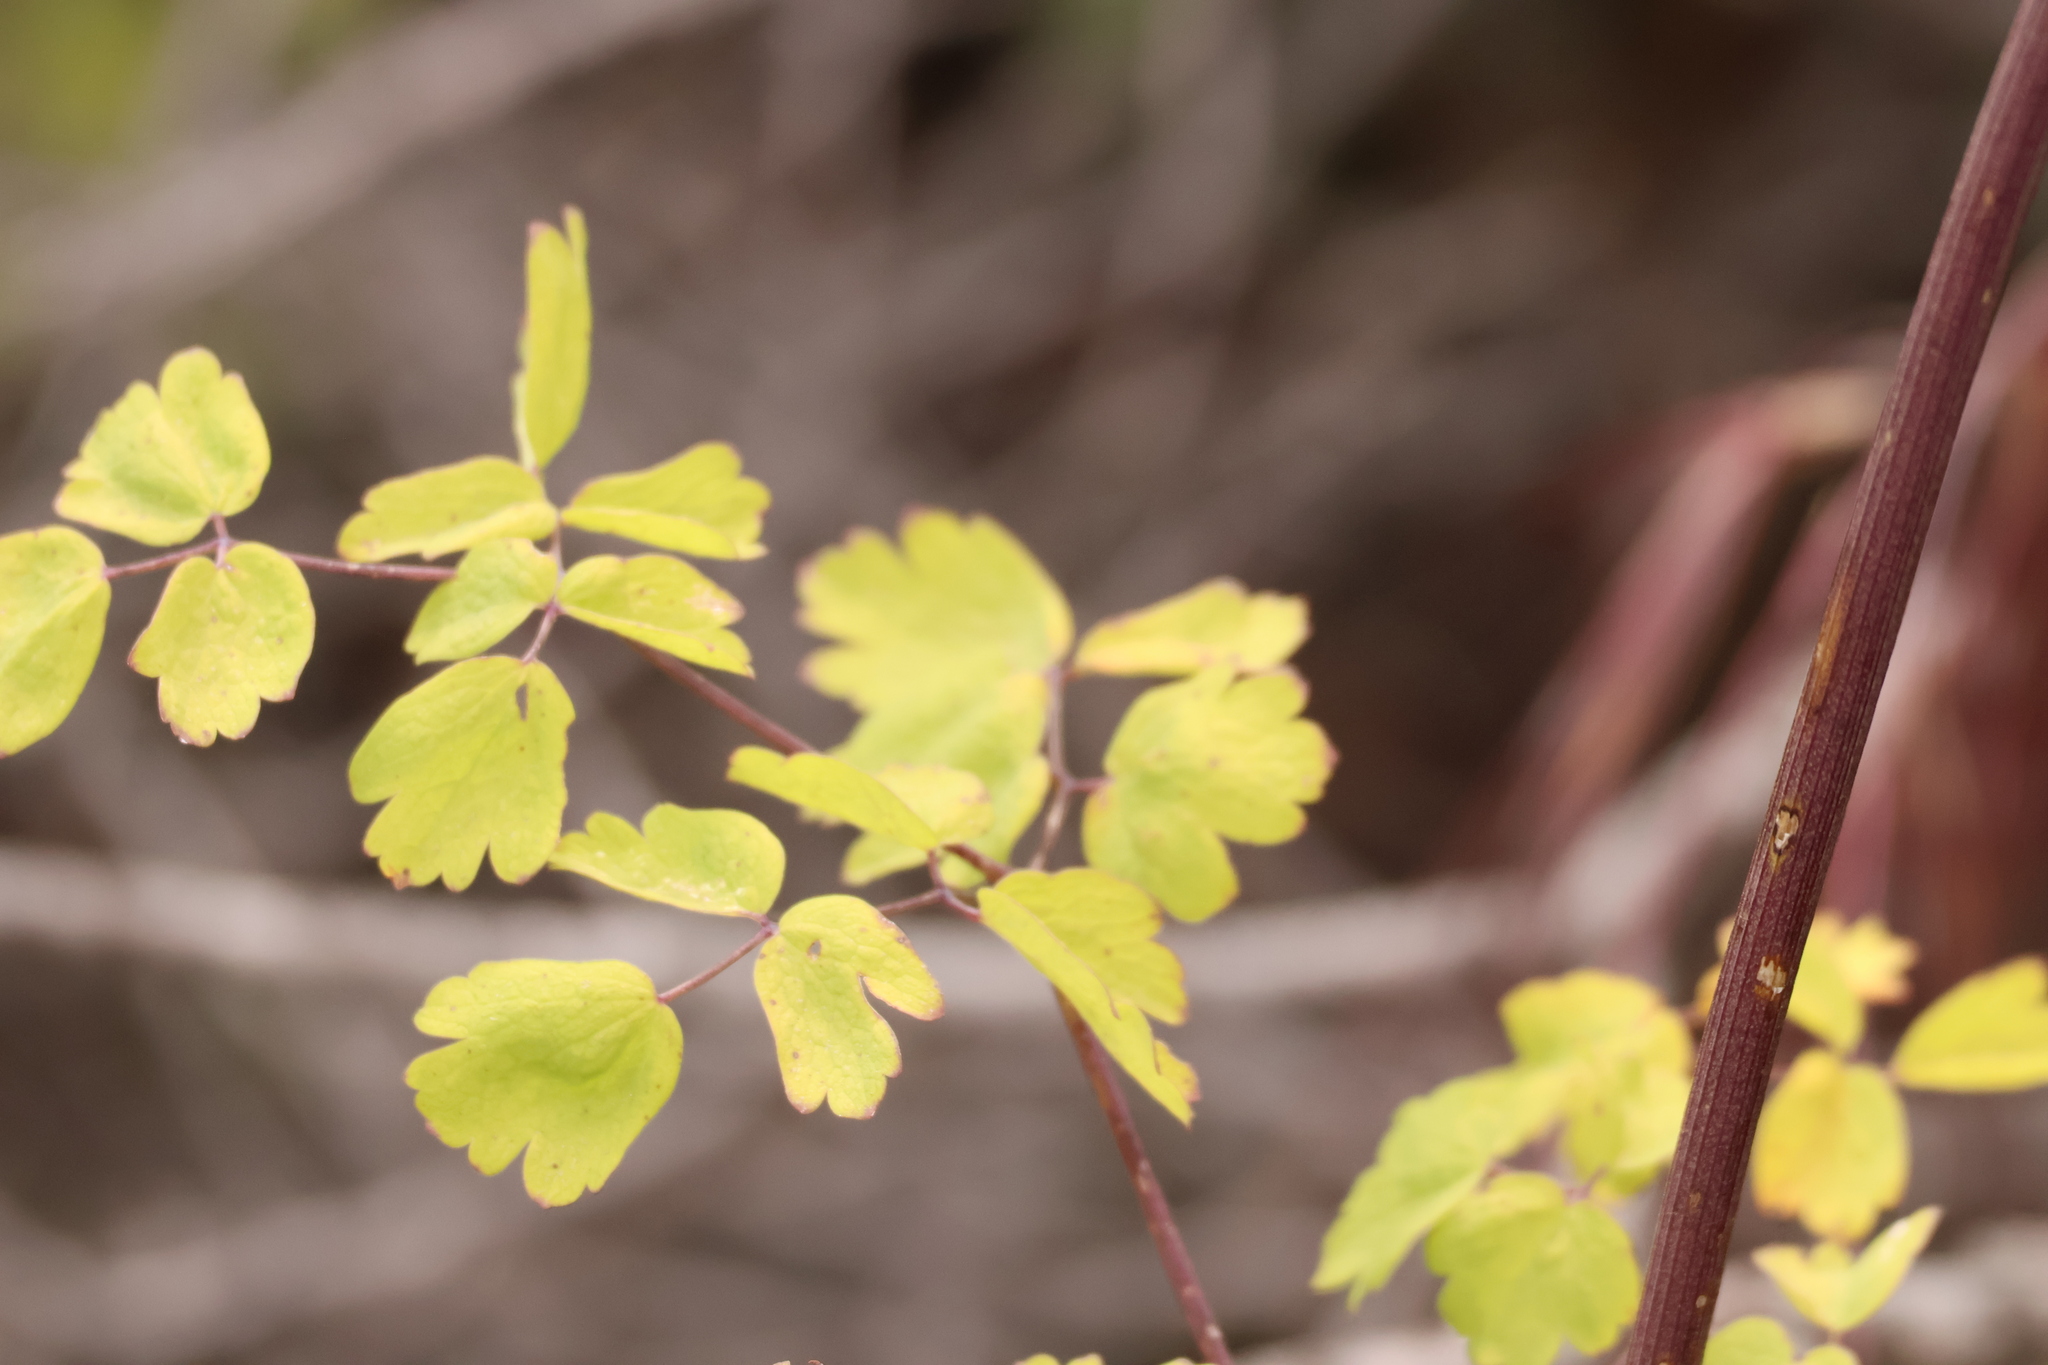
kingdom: Plantae
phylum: Tracheophyta
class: Magnoliopsida
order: Ranunculales
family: Ranunculaceae
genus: Thalictrum
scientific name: Thalictrum fendleri
